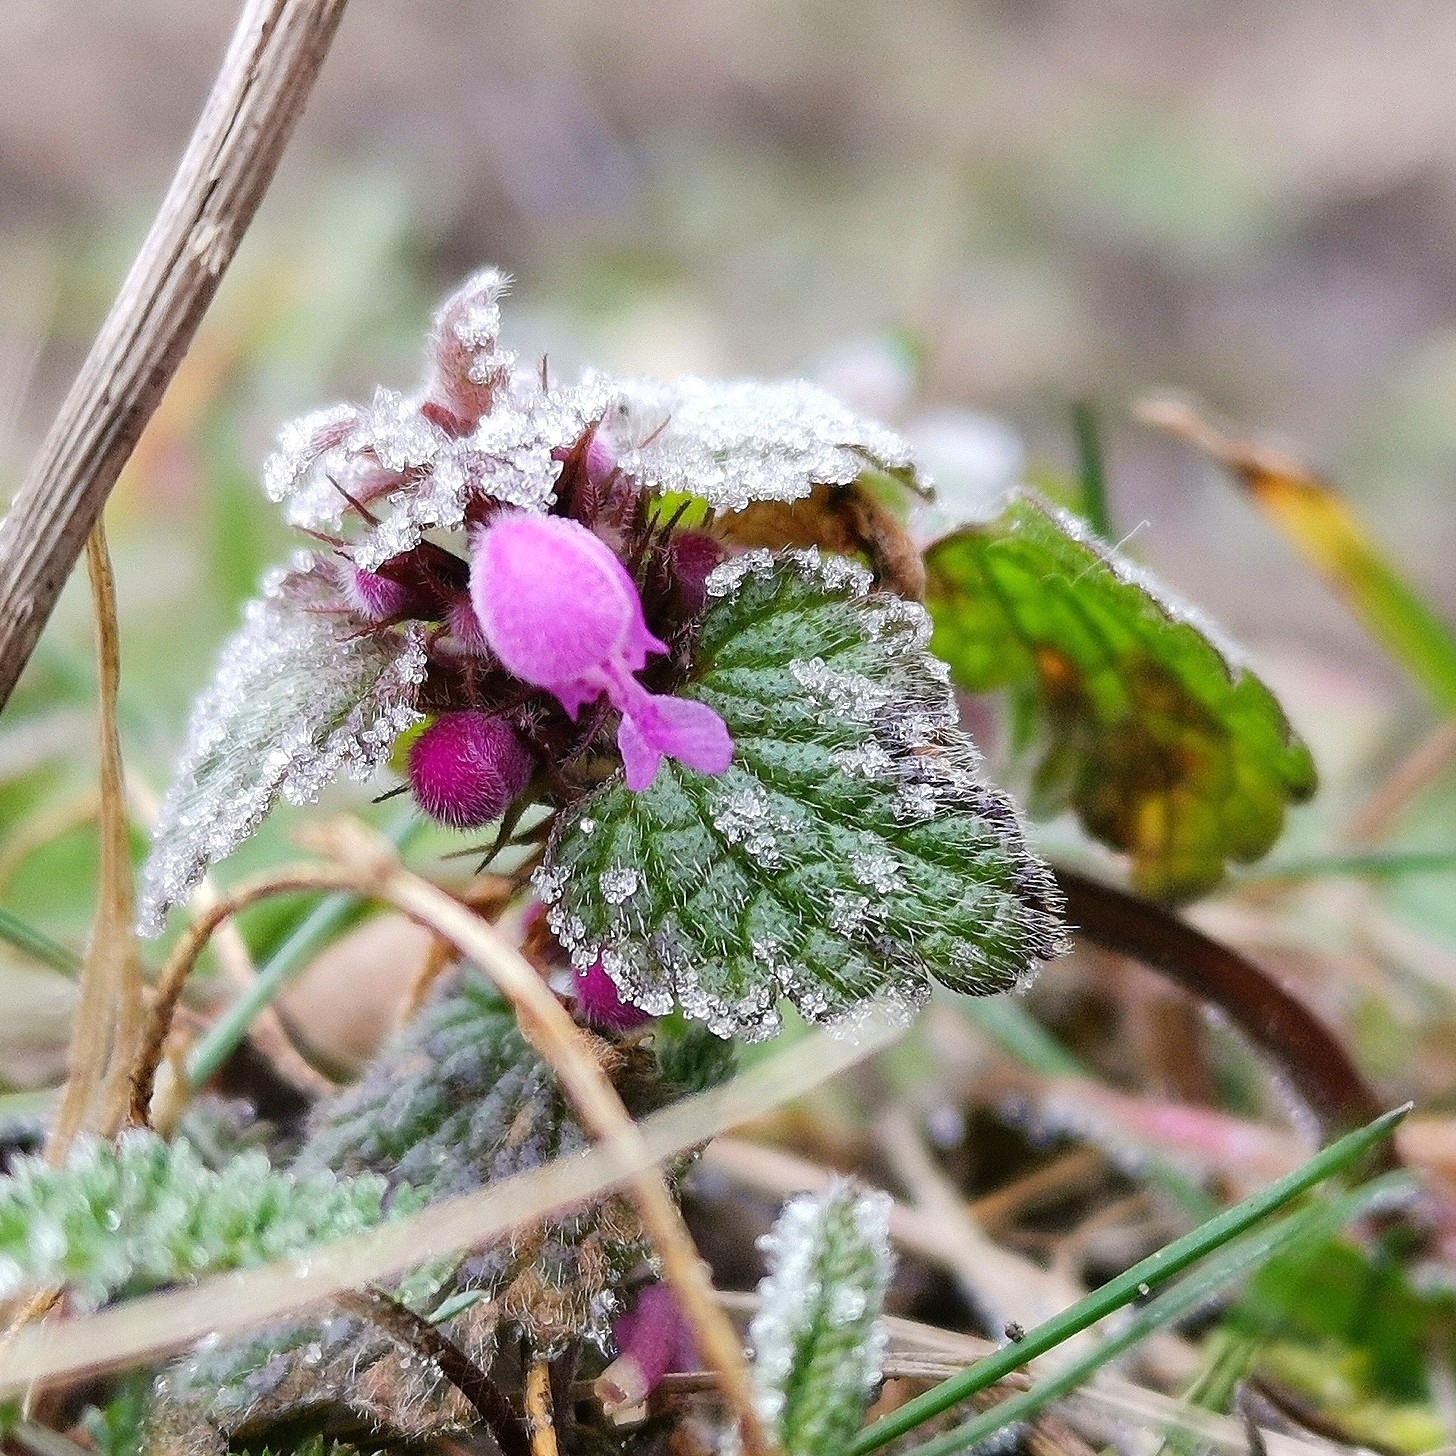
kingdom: Plantae
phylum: Tracheophyta
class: Magnoliopsida
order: Lamiales
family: Lamiaceae
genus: Lamium
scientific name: Lamium purpureum
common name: Red dead-nettle
